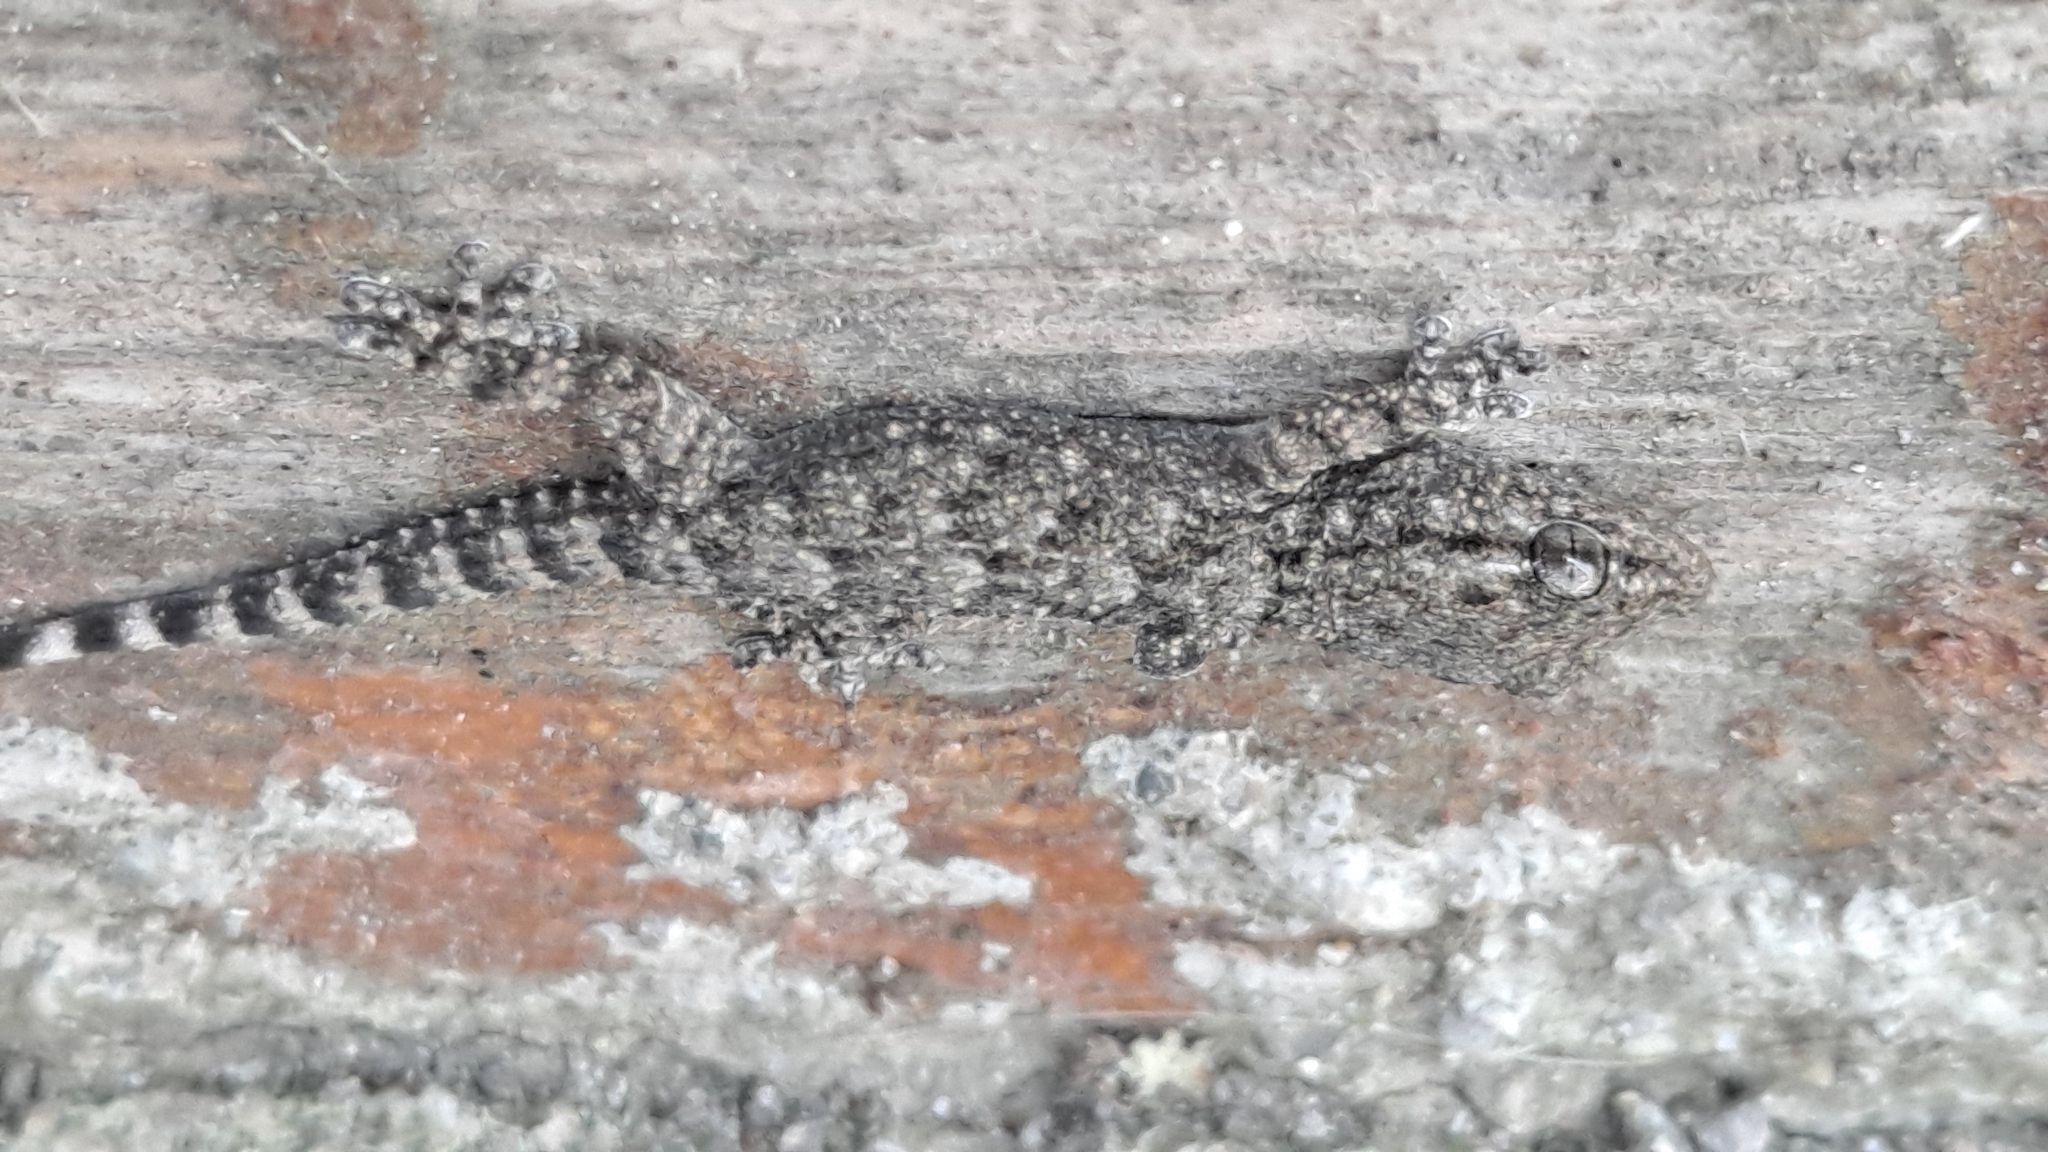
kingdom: Animalia
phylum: Chordata
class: Squamata
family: Phyllodactylidae
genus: Tarentola
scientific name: Tarentola mauritanica
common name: Moorish gecko
